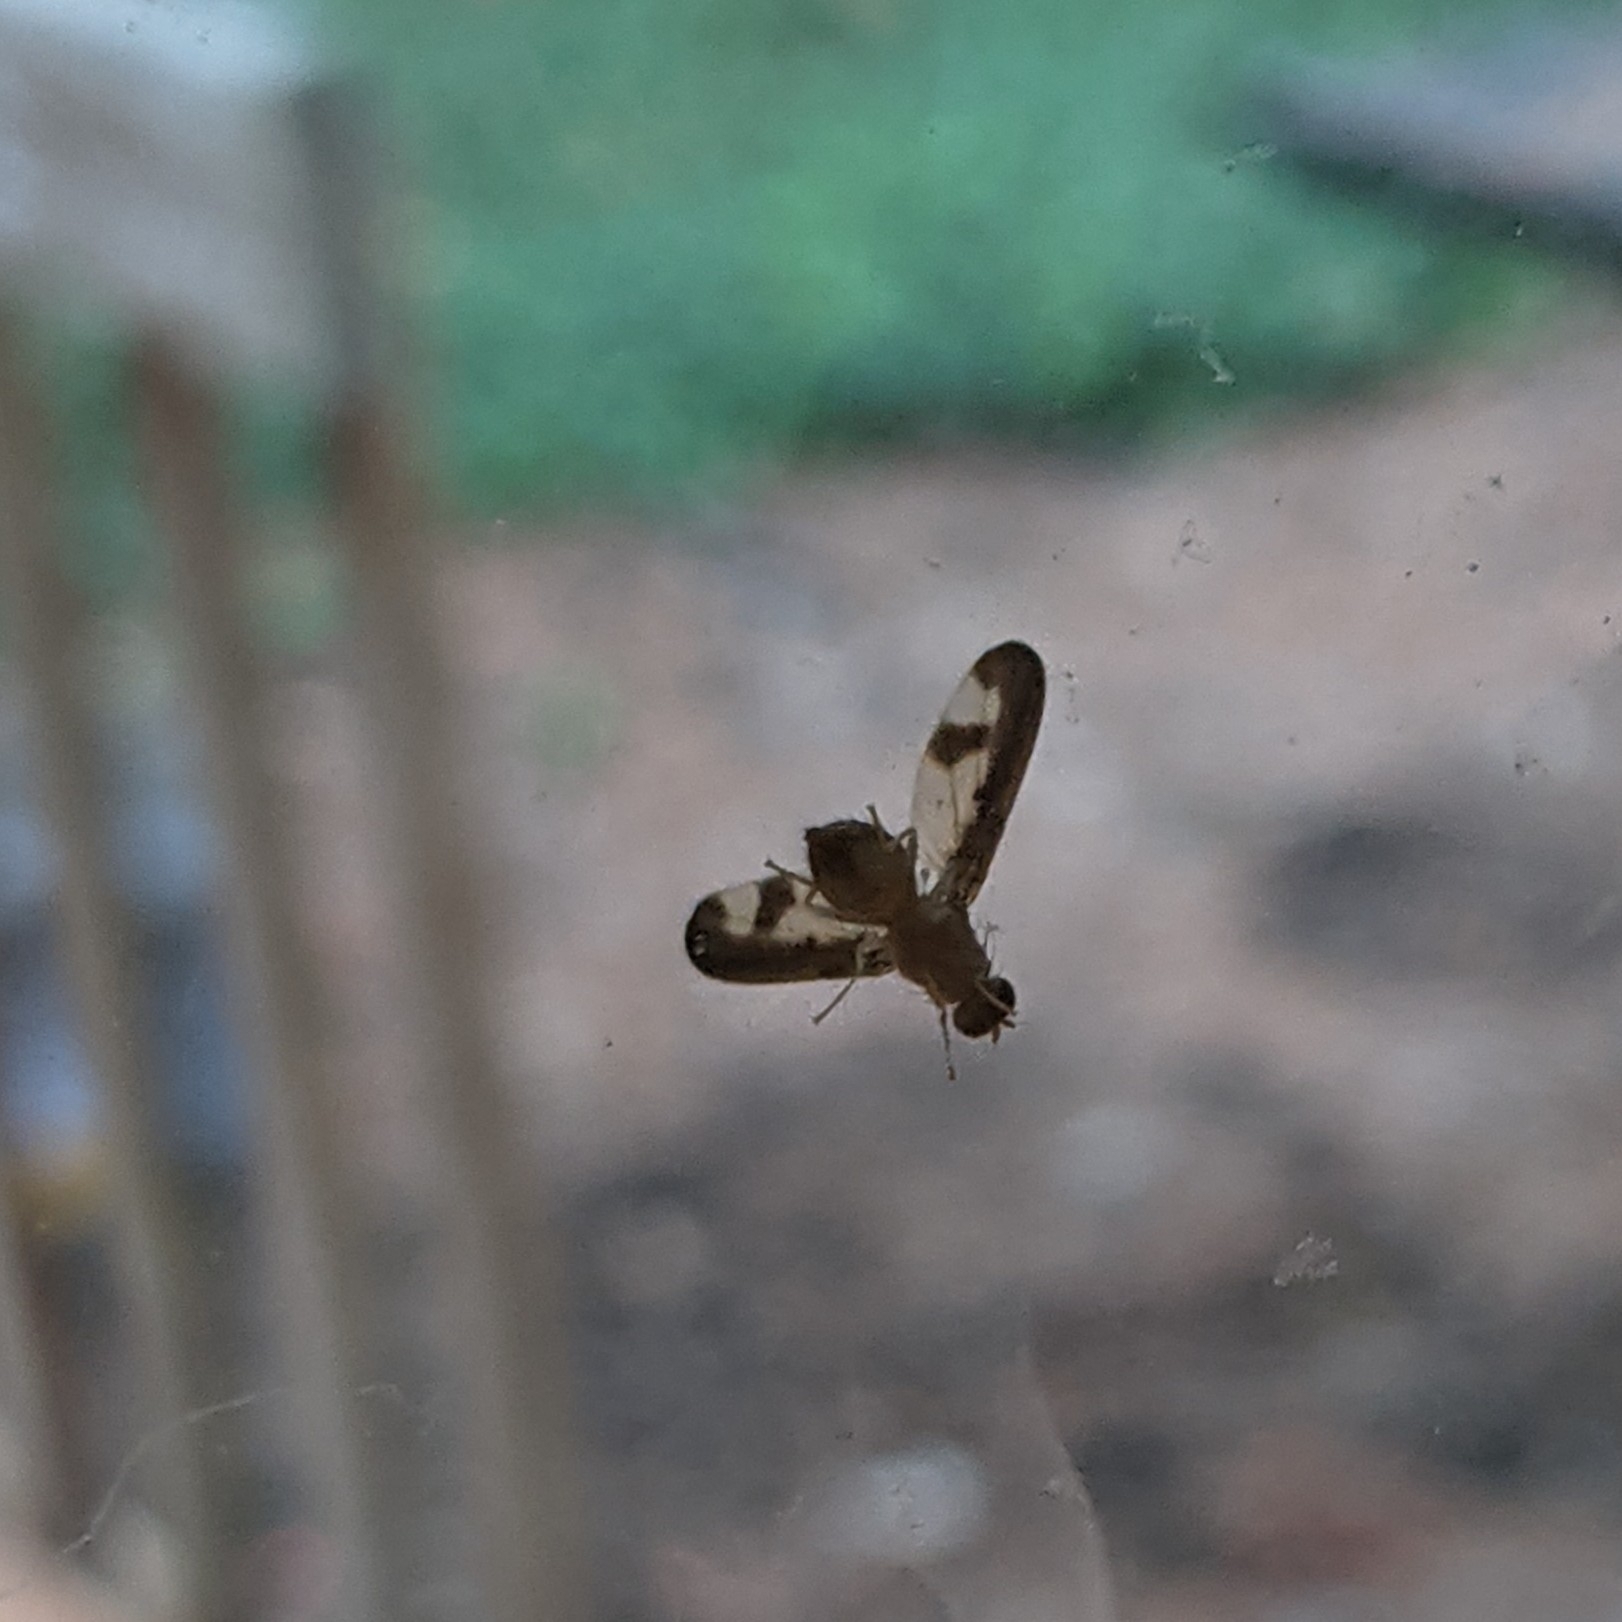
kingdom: Animalia
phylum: Arthropoda
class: Insecta
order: Diptera
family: Pallopteridae
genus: Toxonevra
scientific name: Toxonevra superba
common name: Antlered flutter fly
